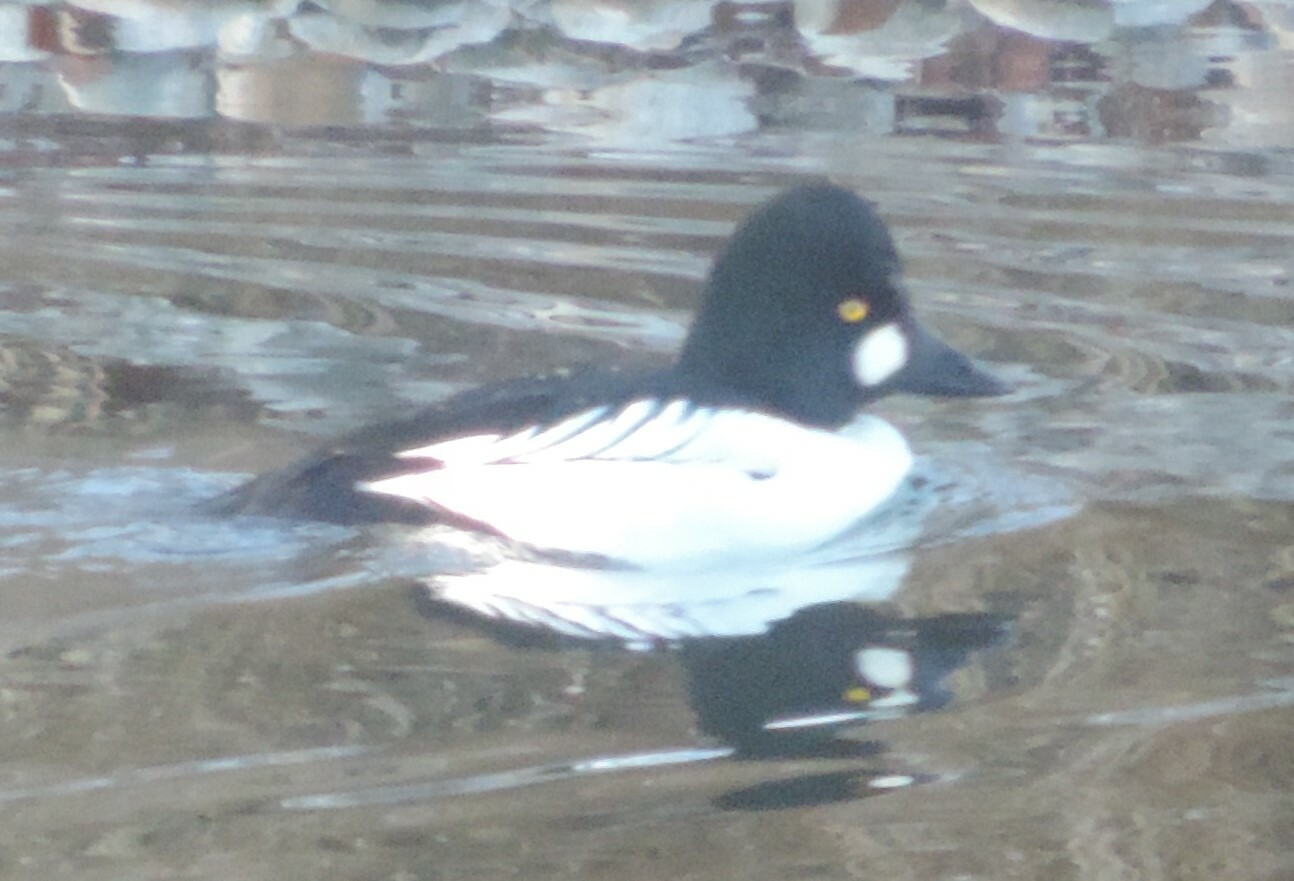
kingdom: Animalia
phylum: Chordata
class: Aves
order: Anseriformes
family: Anatidae
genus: Bucephala
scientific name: Bucephala clangula
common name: Common goldeneye
